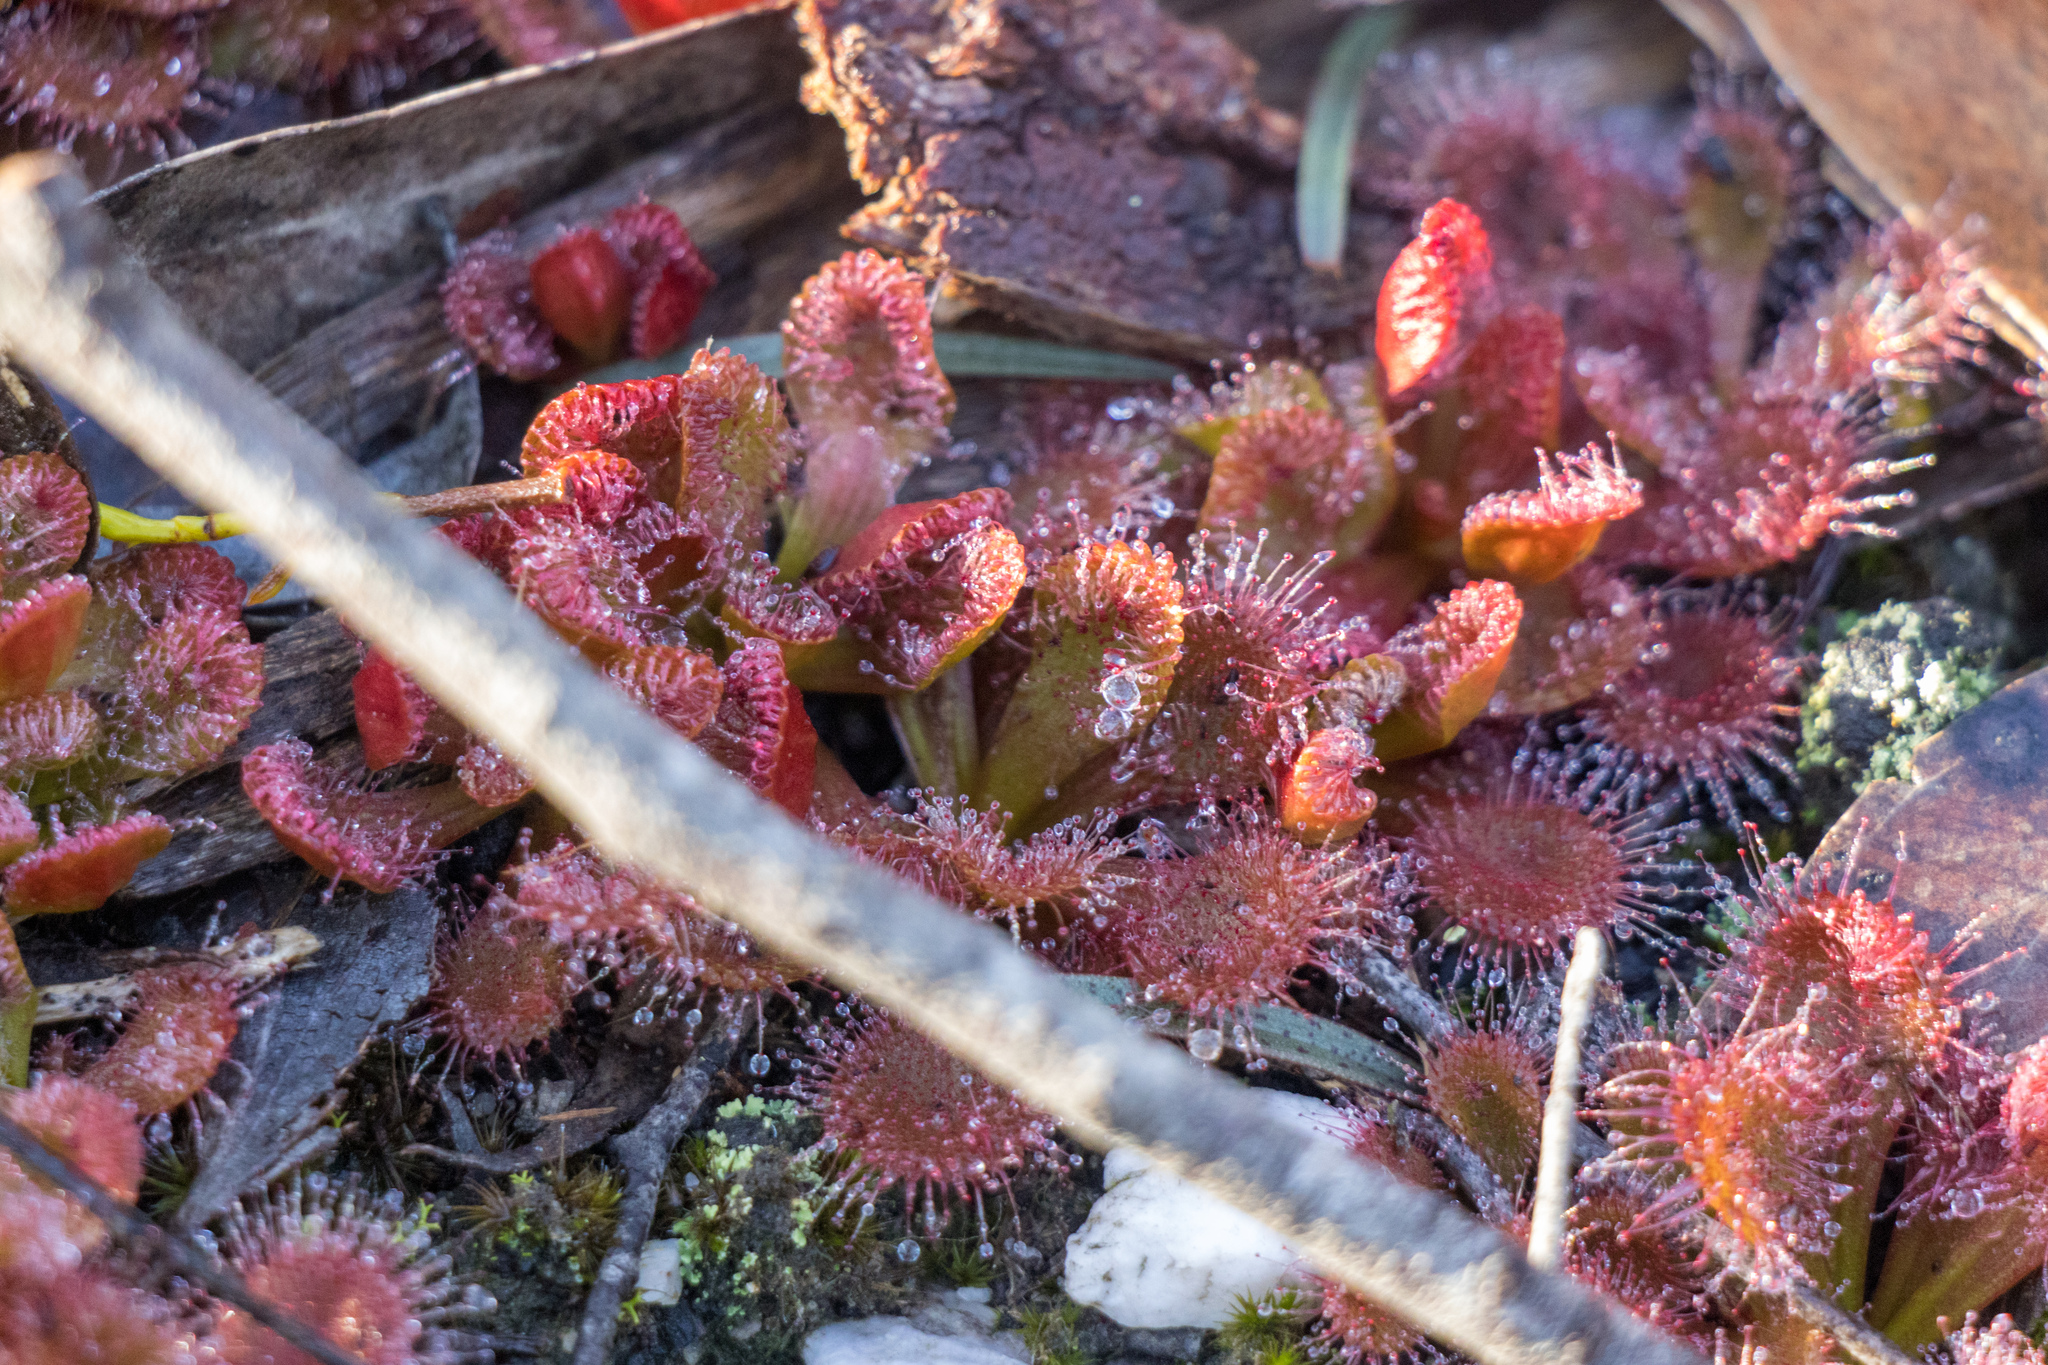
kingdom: Plantae
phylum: Tracheophyta
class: Magnoliopsida
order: Caryophyllales
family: Droseraceae
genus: Drosera
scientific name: Drosera aberrans
